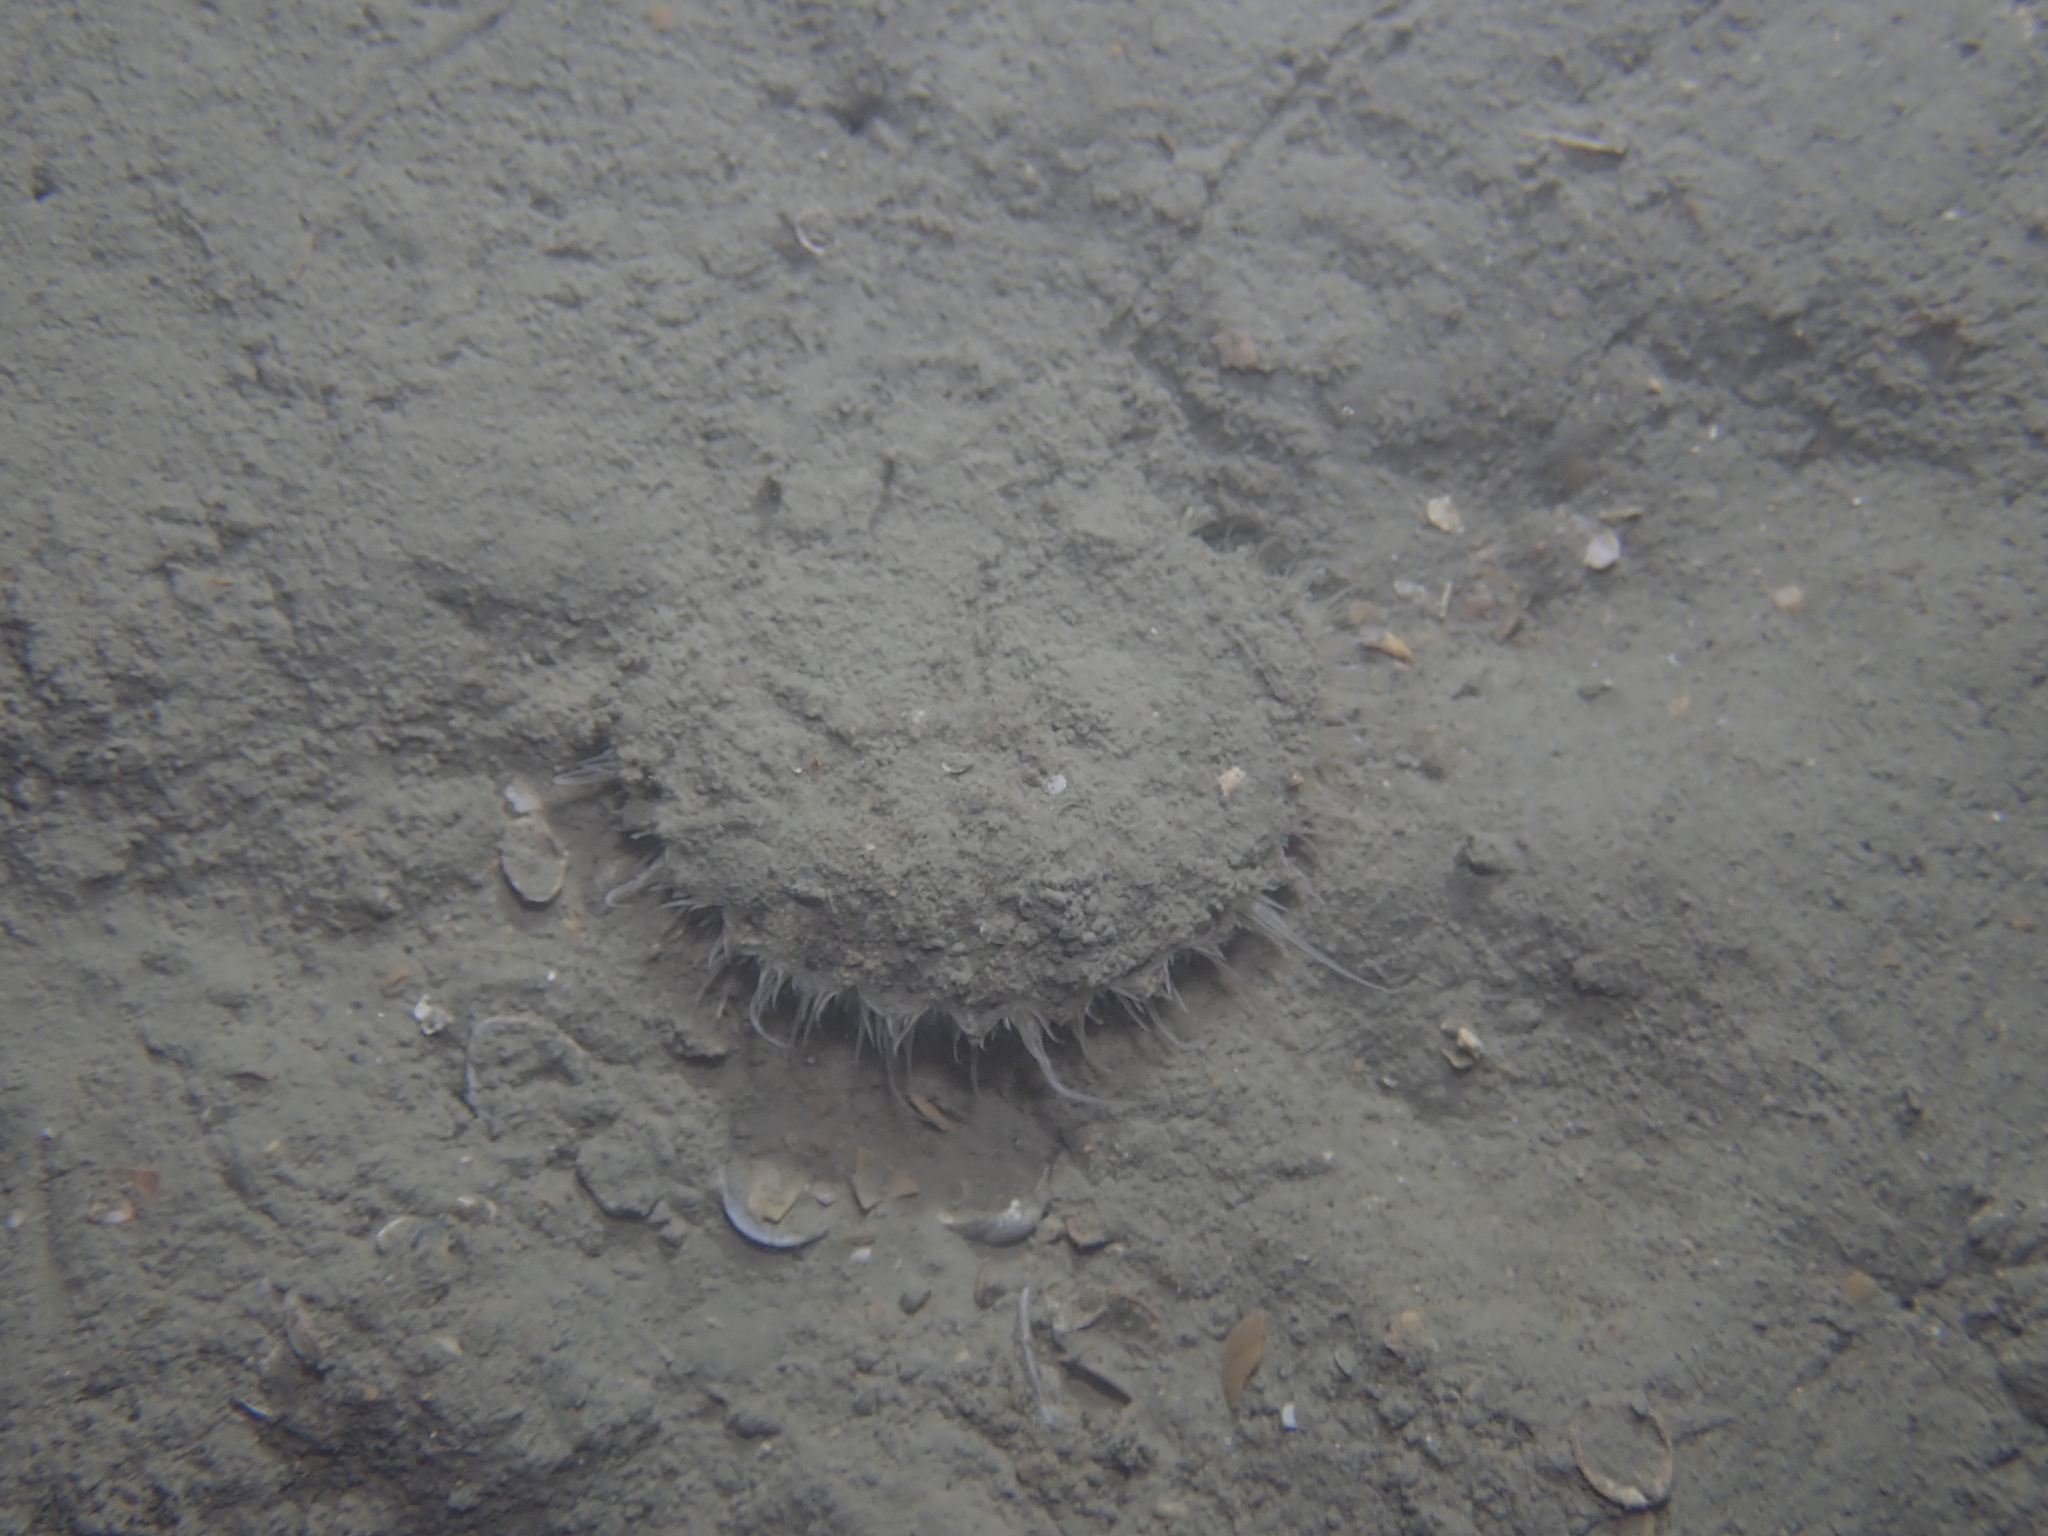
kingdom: Animalia
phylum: Mollusca
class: Bivalvia
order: Pectinida
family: Pectinidae
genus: Pecten
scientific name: Pecten jacobaeus
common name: St.james's scallop
